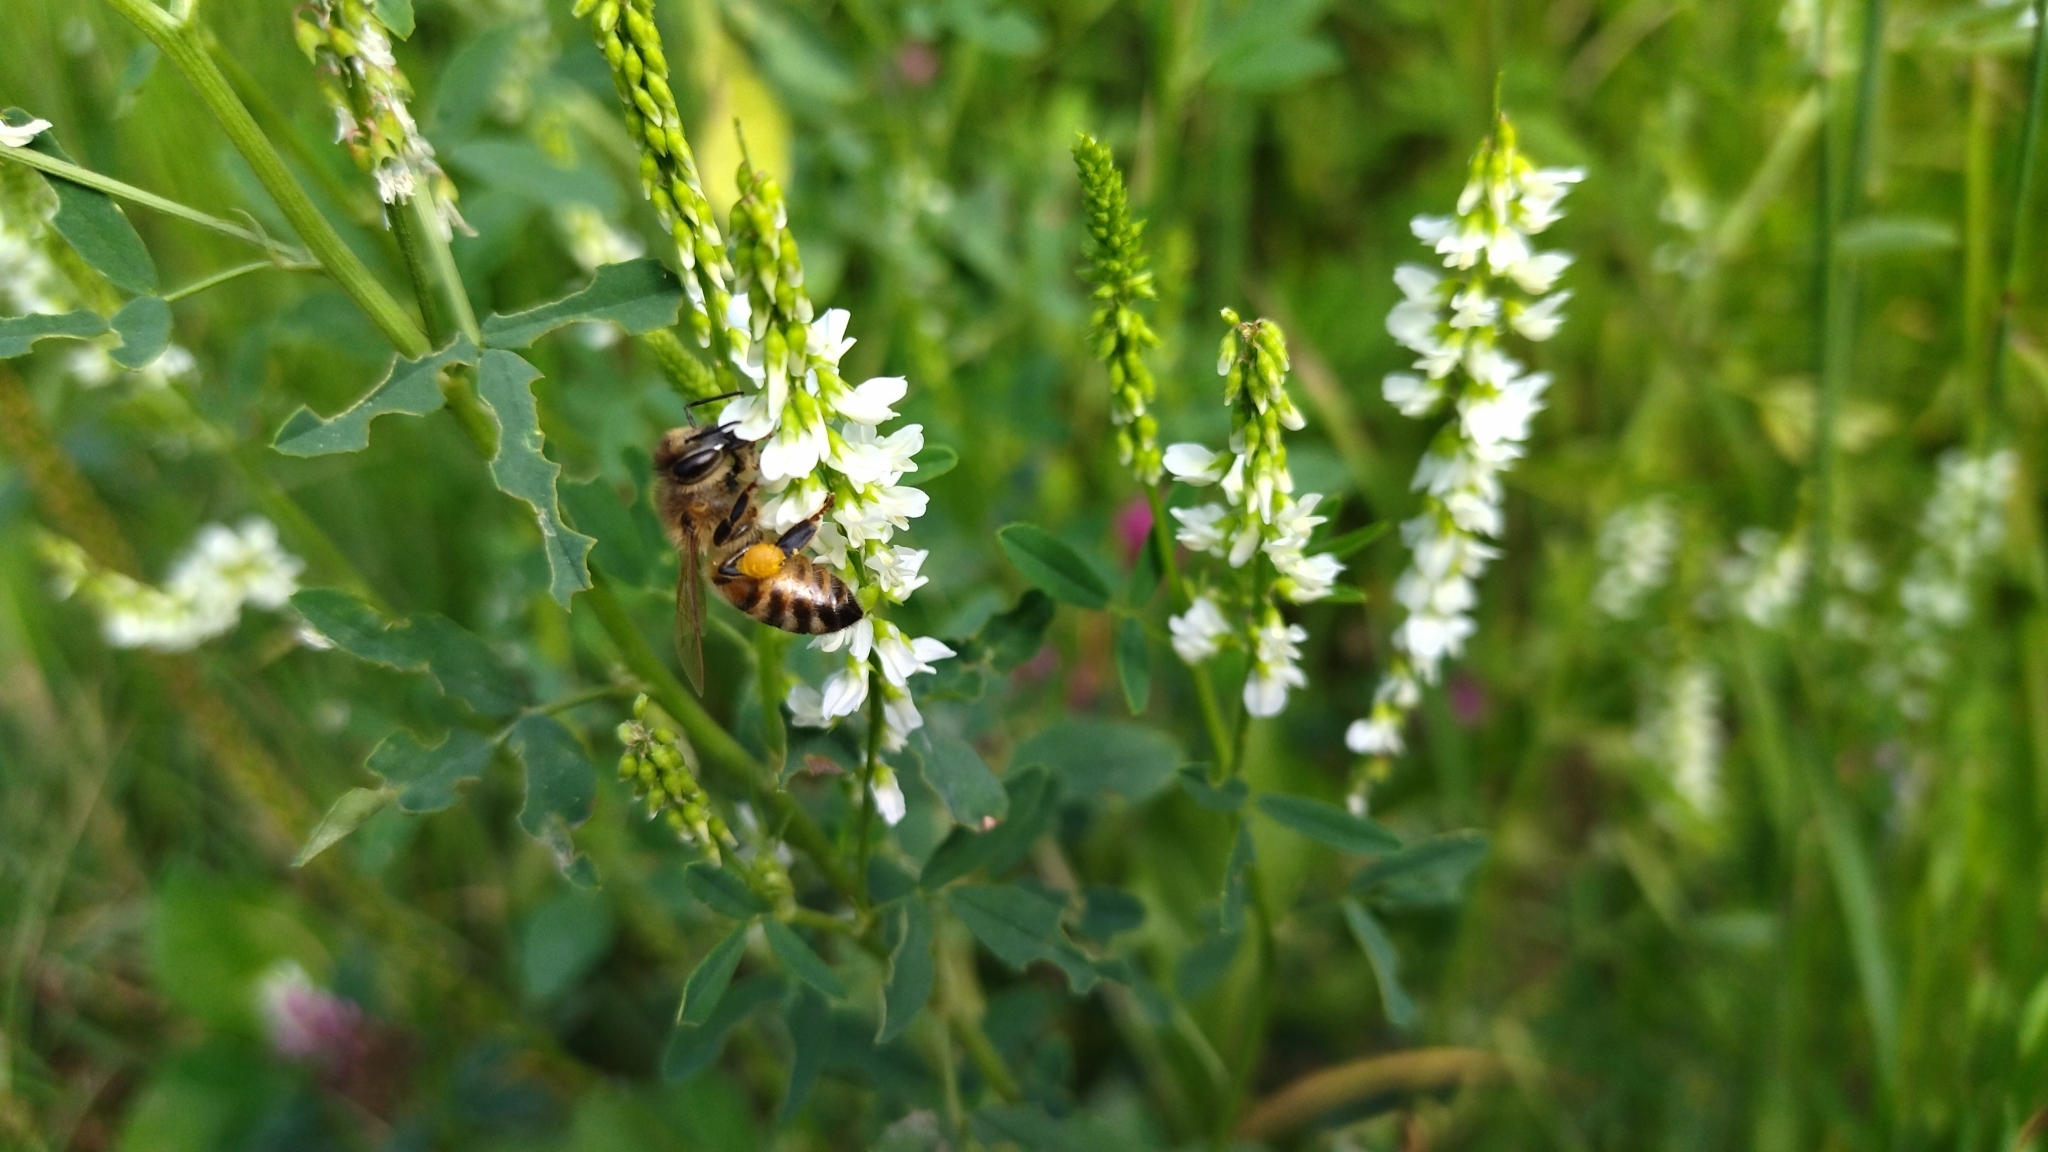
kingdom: Animalia
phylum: Arthropoda
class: Insecta
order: Hymenoptera
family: Apidae
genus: Apis
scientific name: Apis mellifera
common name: Honey bee
